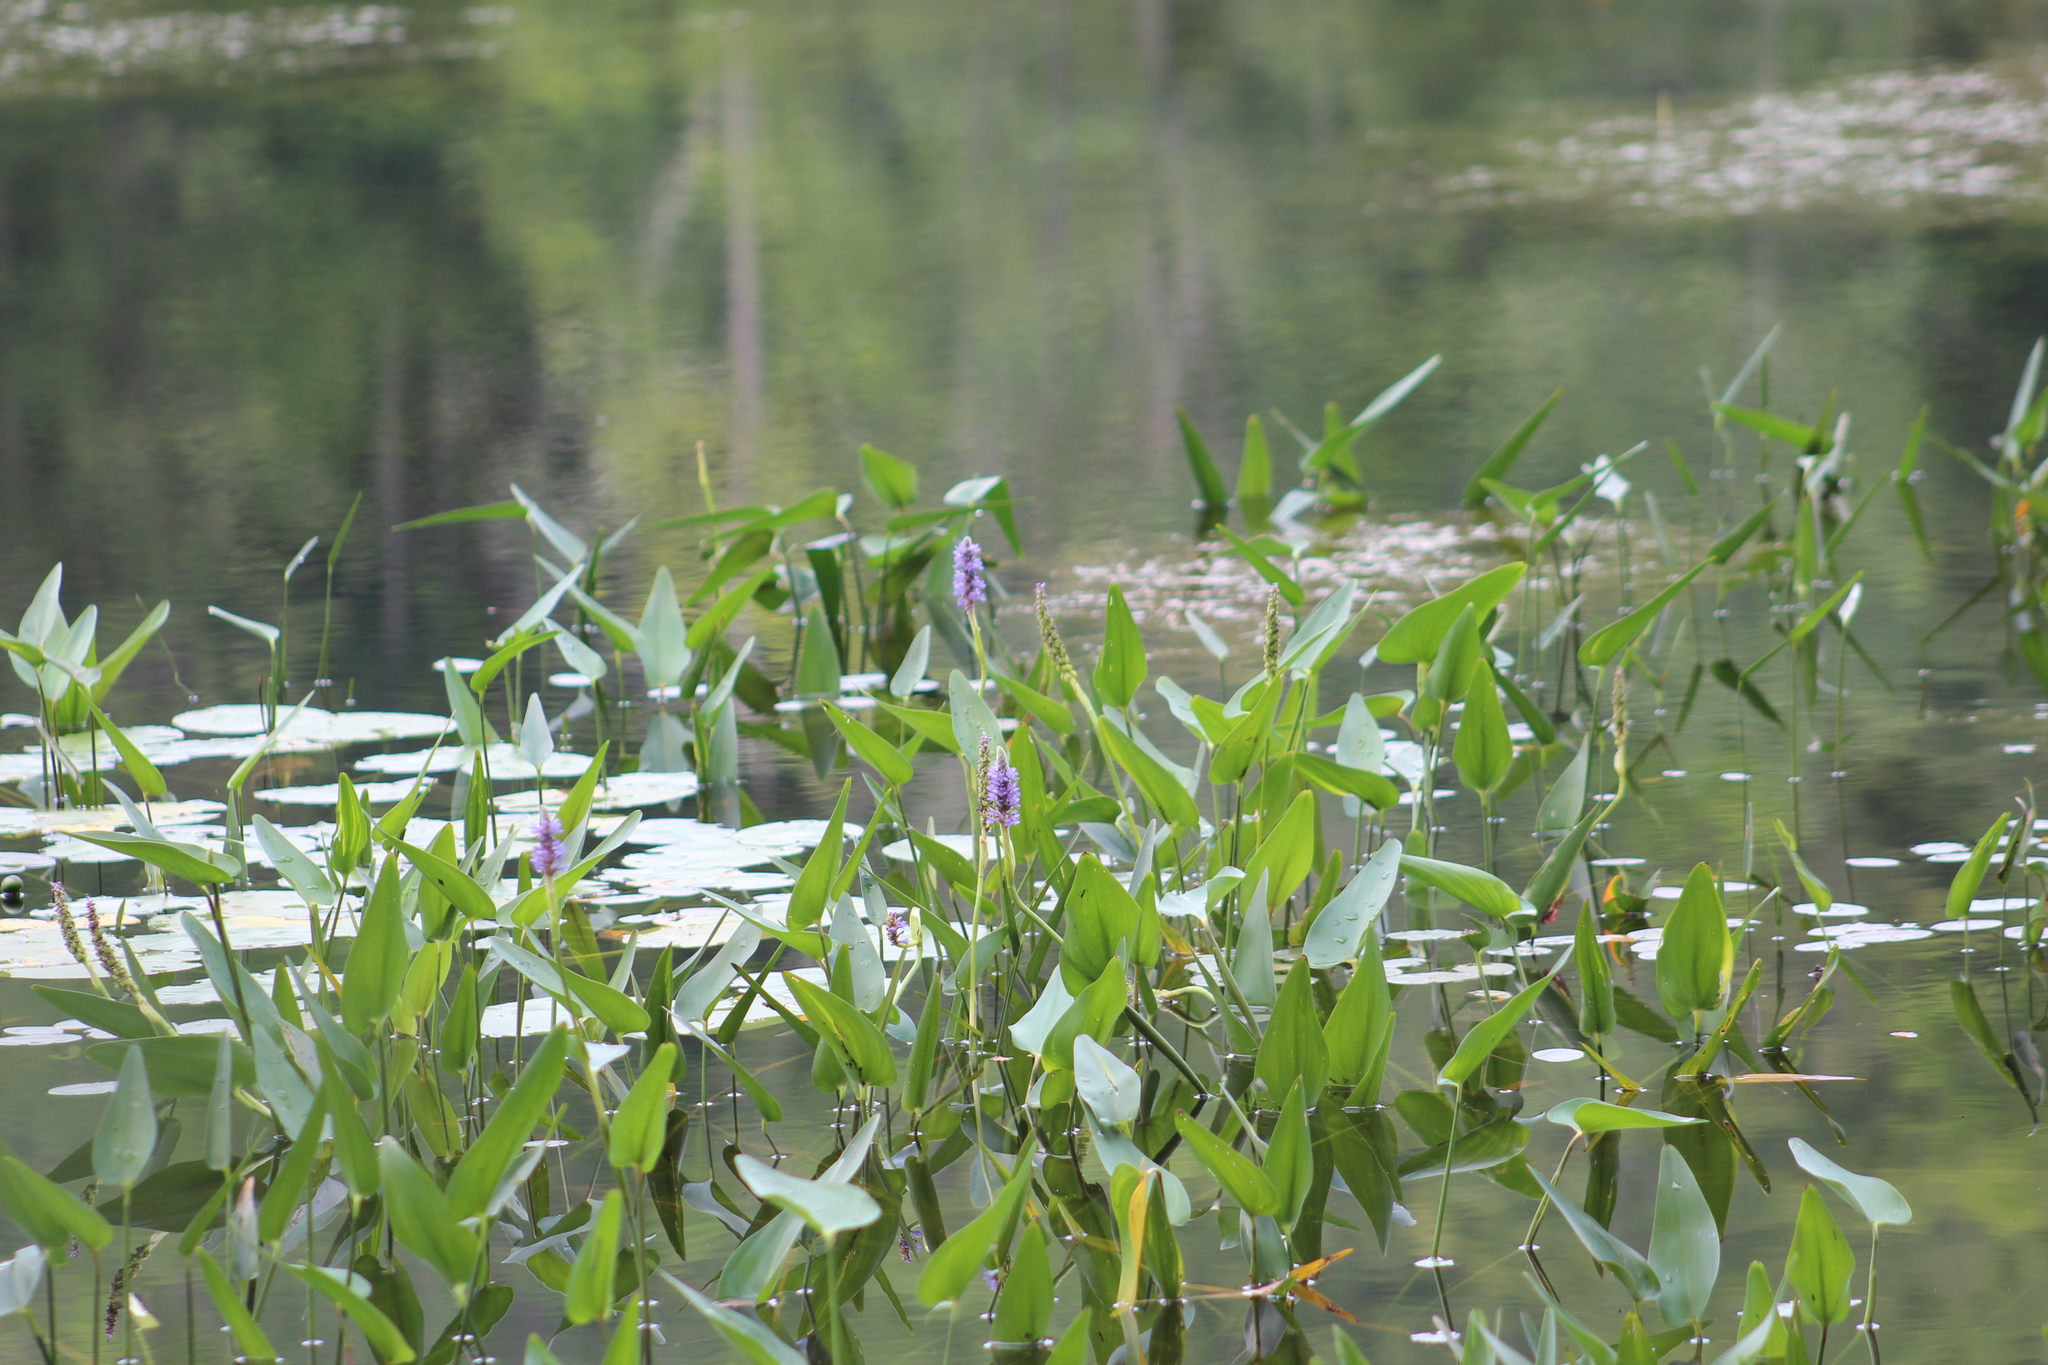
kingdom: Plantae
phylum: Tracheophyta
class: Liliopsida
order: Commelinales
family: Pontederiaceae
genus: Pontederia
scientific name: Pontederia cordata
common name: Pickerelweed
